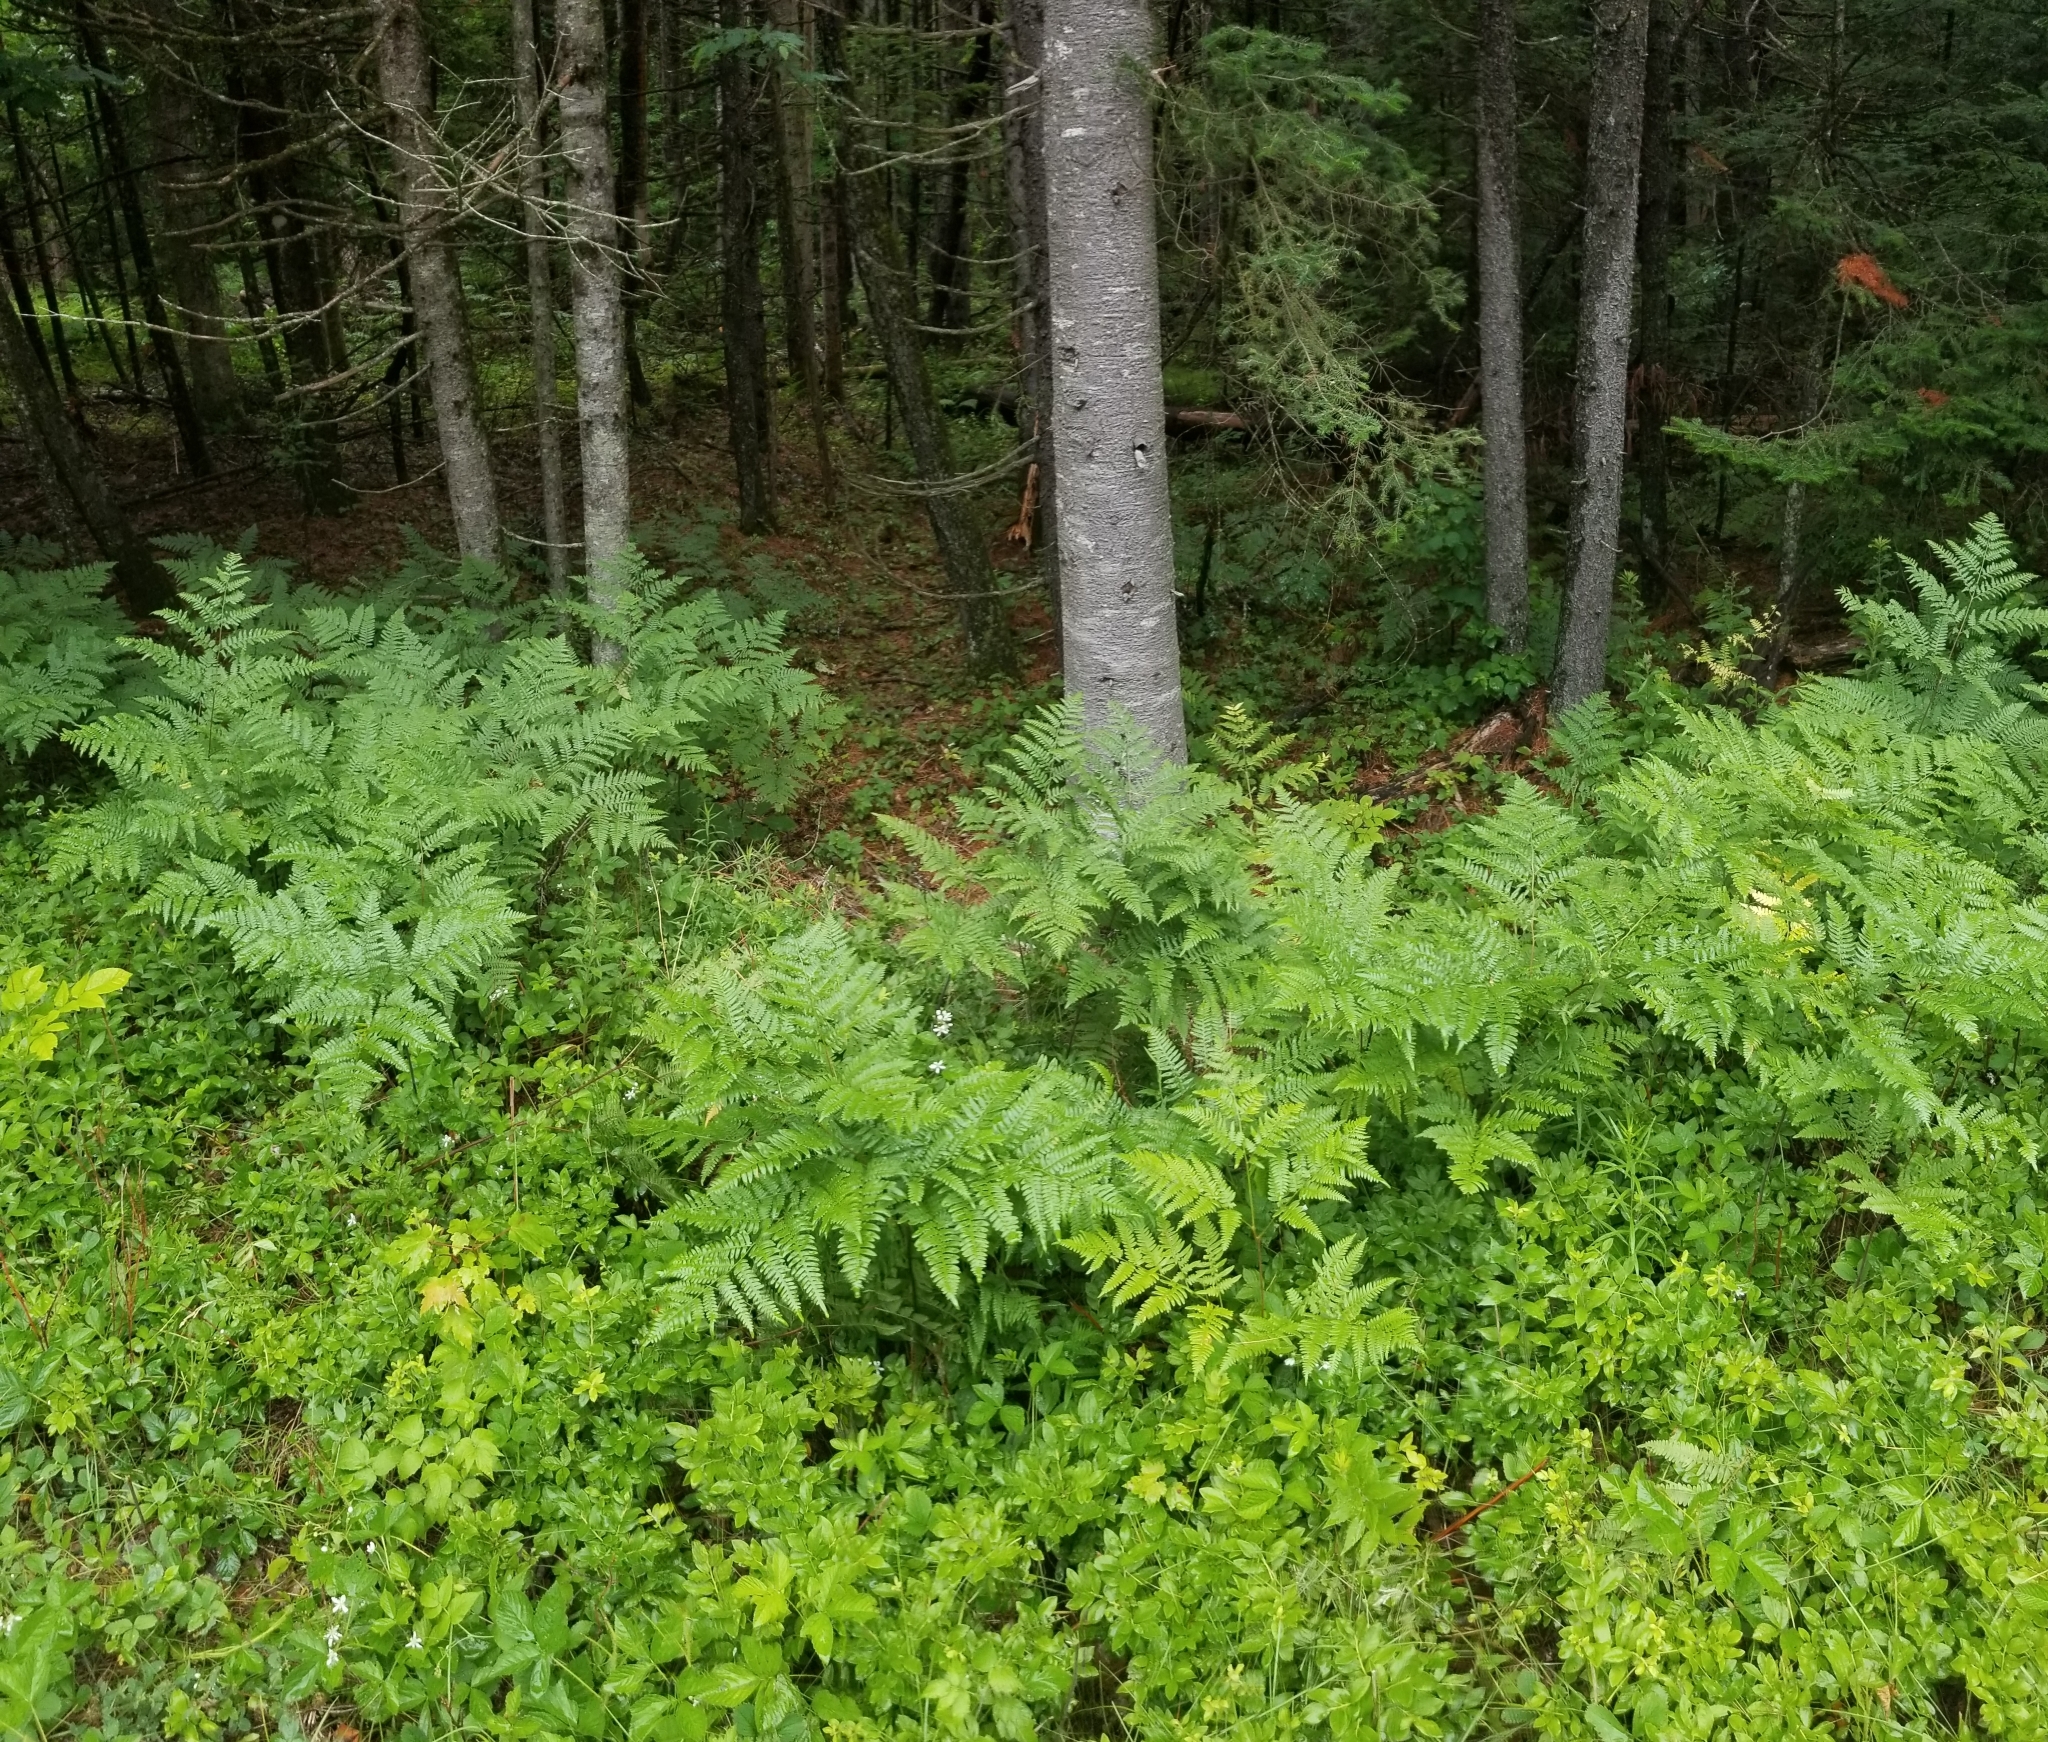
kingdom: Plantae
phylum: Tracheophyta
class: Polypodiopsida
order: Polypodiales
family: Dennstaedtiaceae
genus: Pteridium
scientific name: Pteridium aquilinum
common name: Bracken
